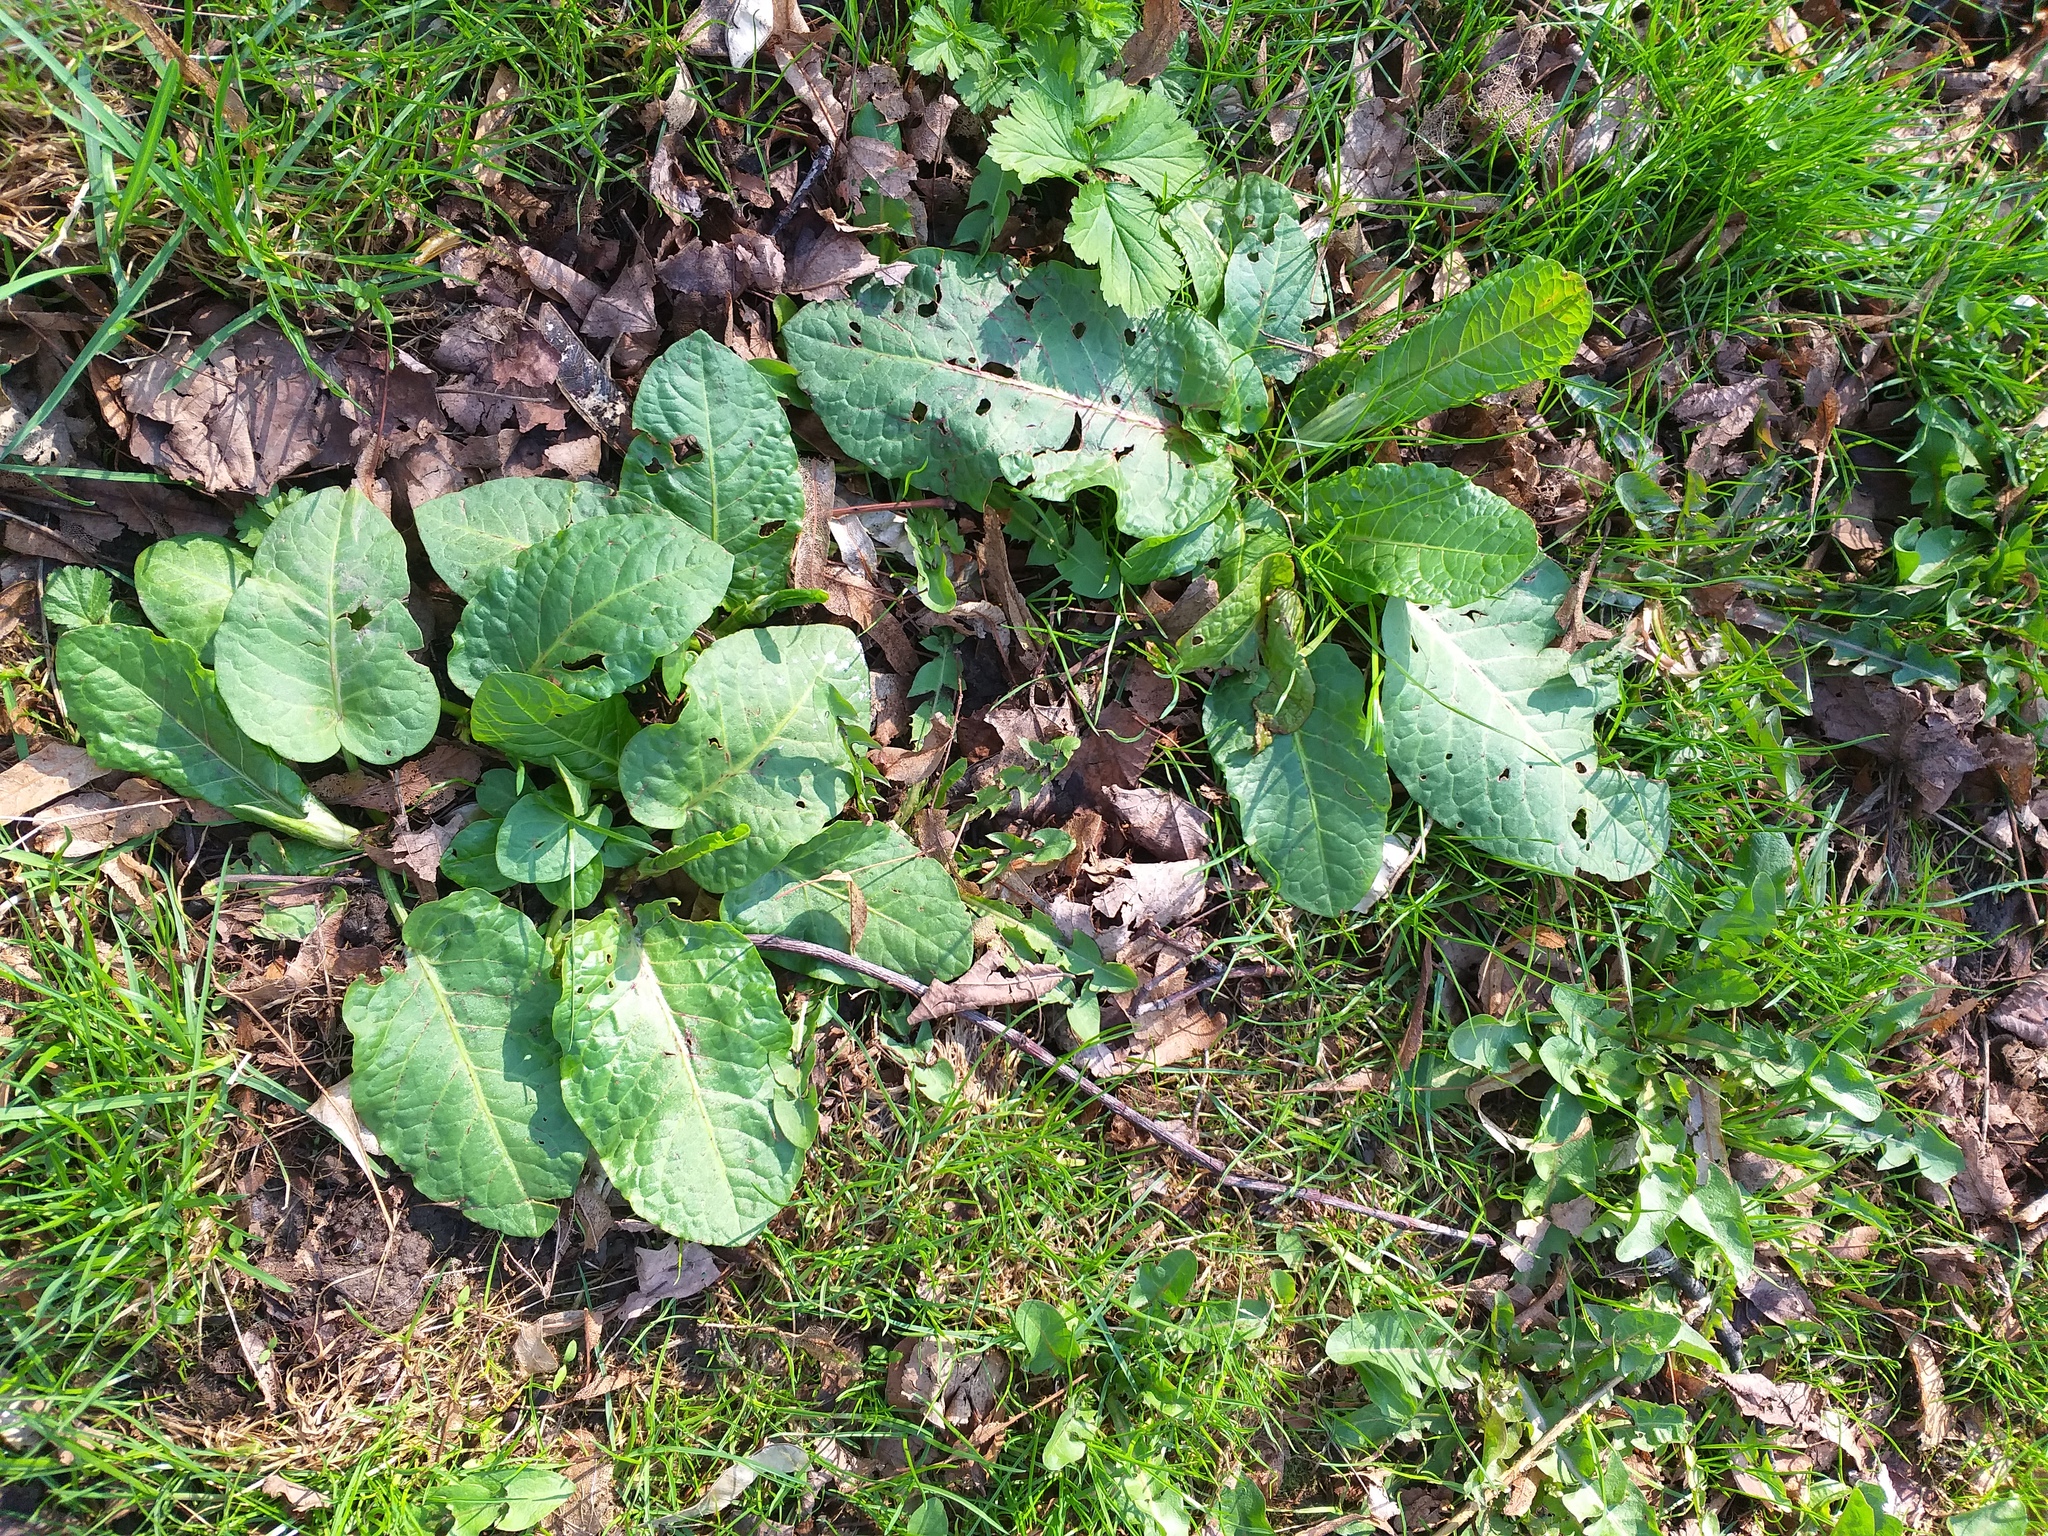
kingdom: Plantae
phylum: Tracheophyta
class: Magnoliopsida
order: Caryophyllales
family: Polygonaceae
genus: Rumex
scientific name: Rumex obtusifolius
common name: Bitter dock
